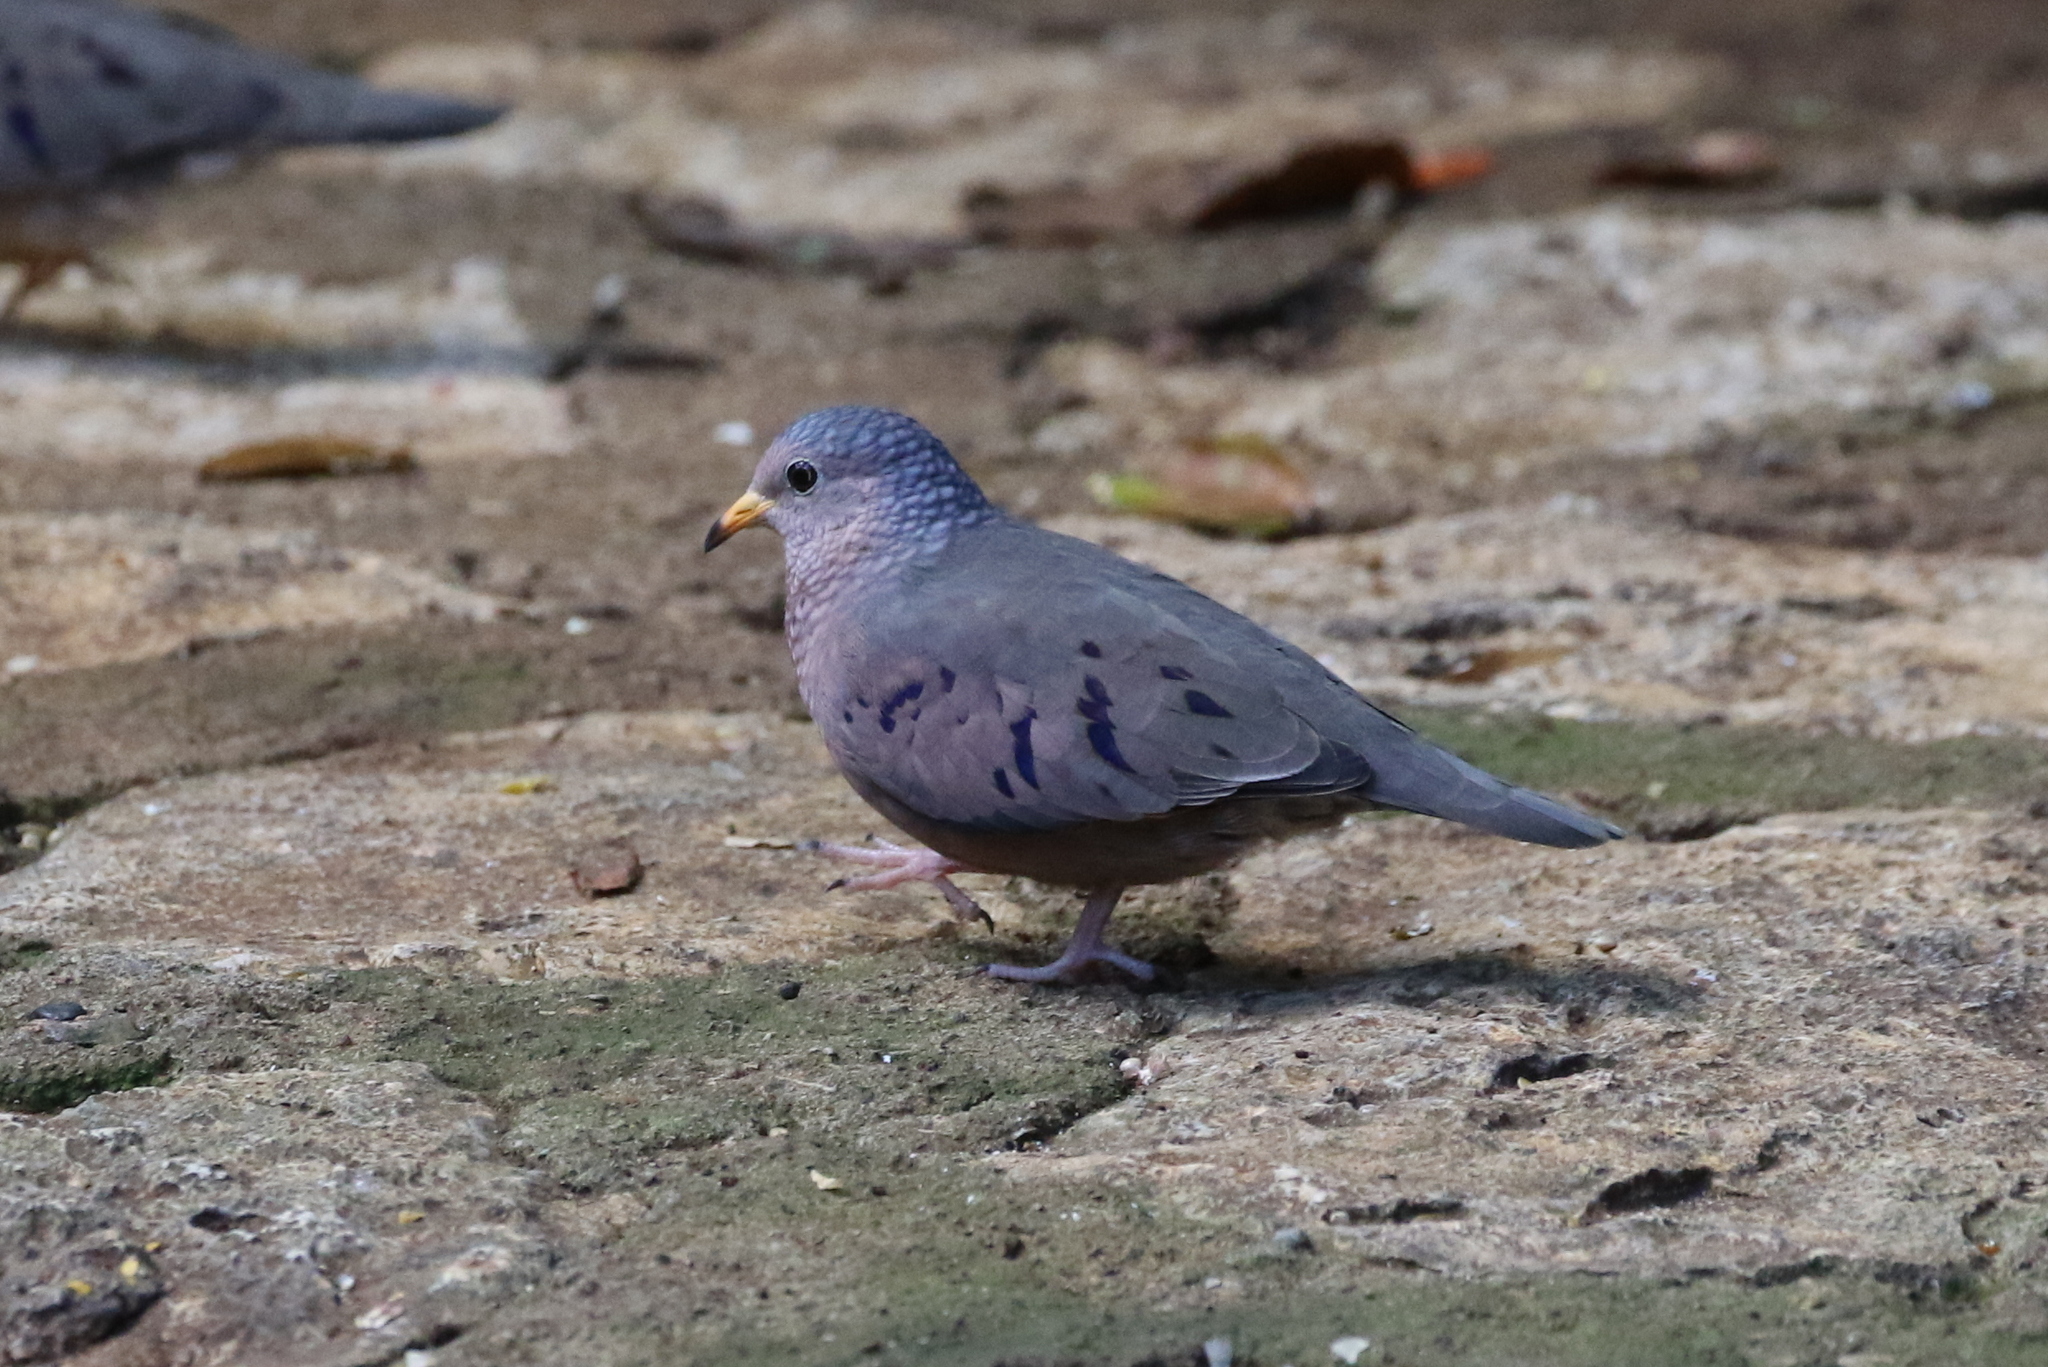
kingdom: Animalia
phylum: Chordata
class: Aves
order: Columbiformes
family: Columbidae
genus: Columbina
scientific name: Columbina passerina
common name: Common ground-dove
